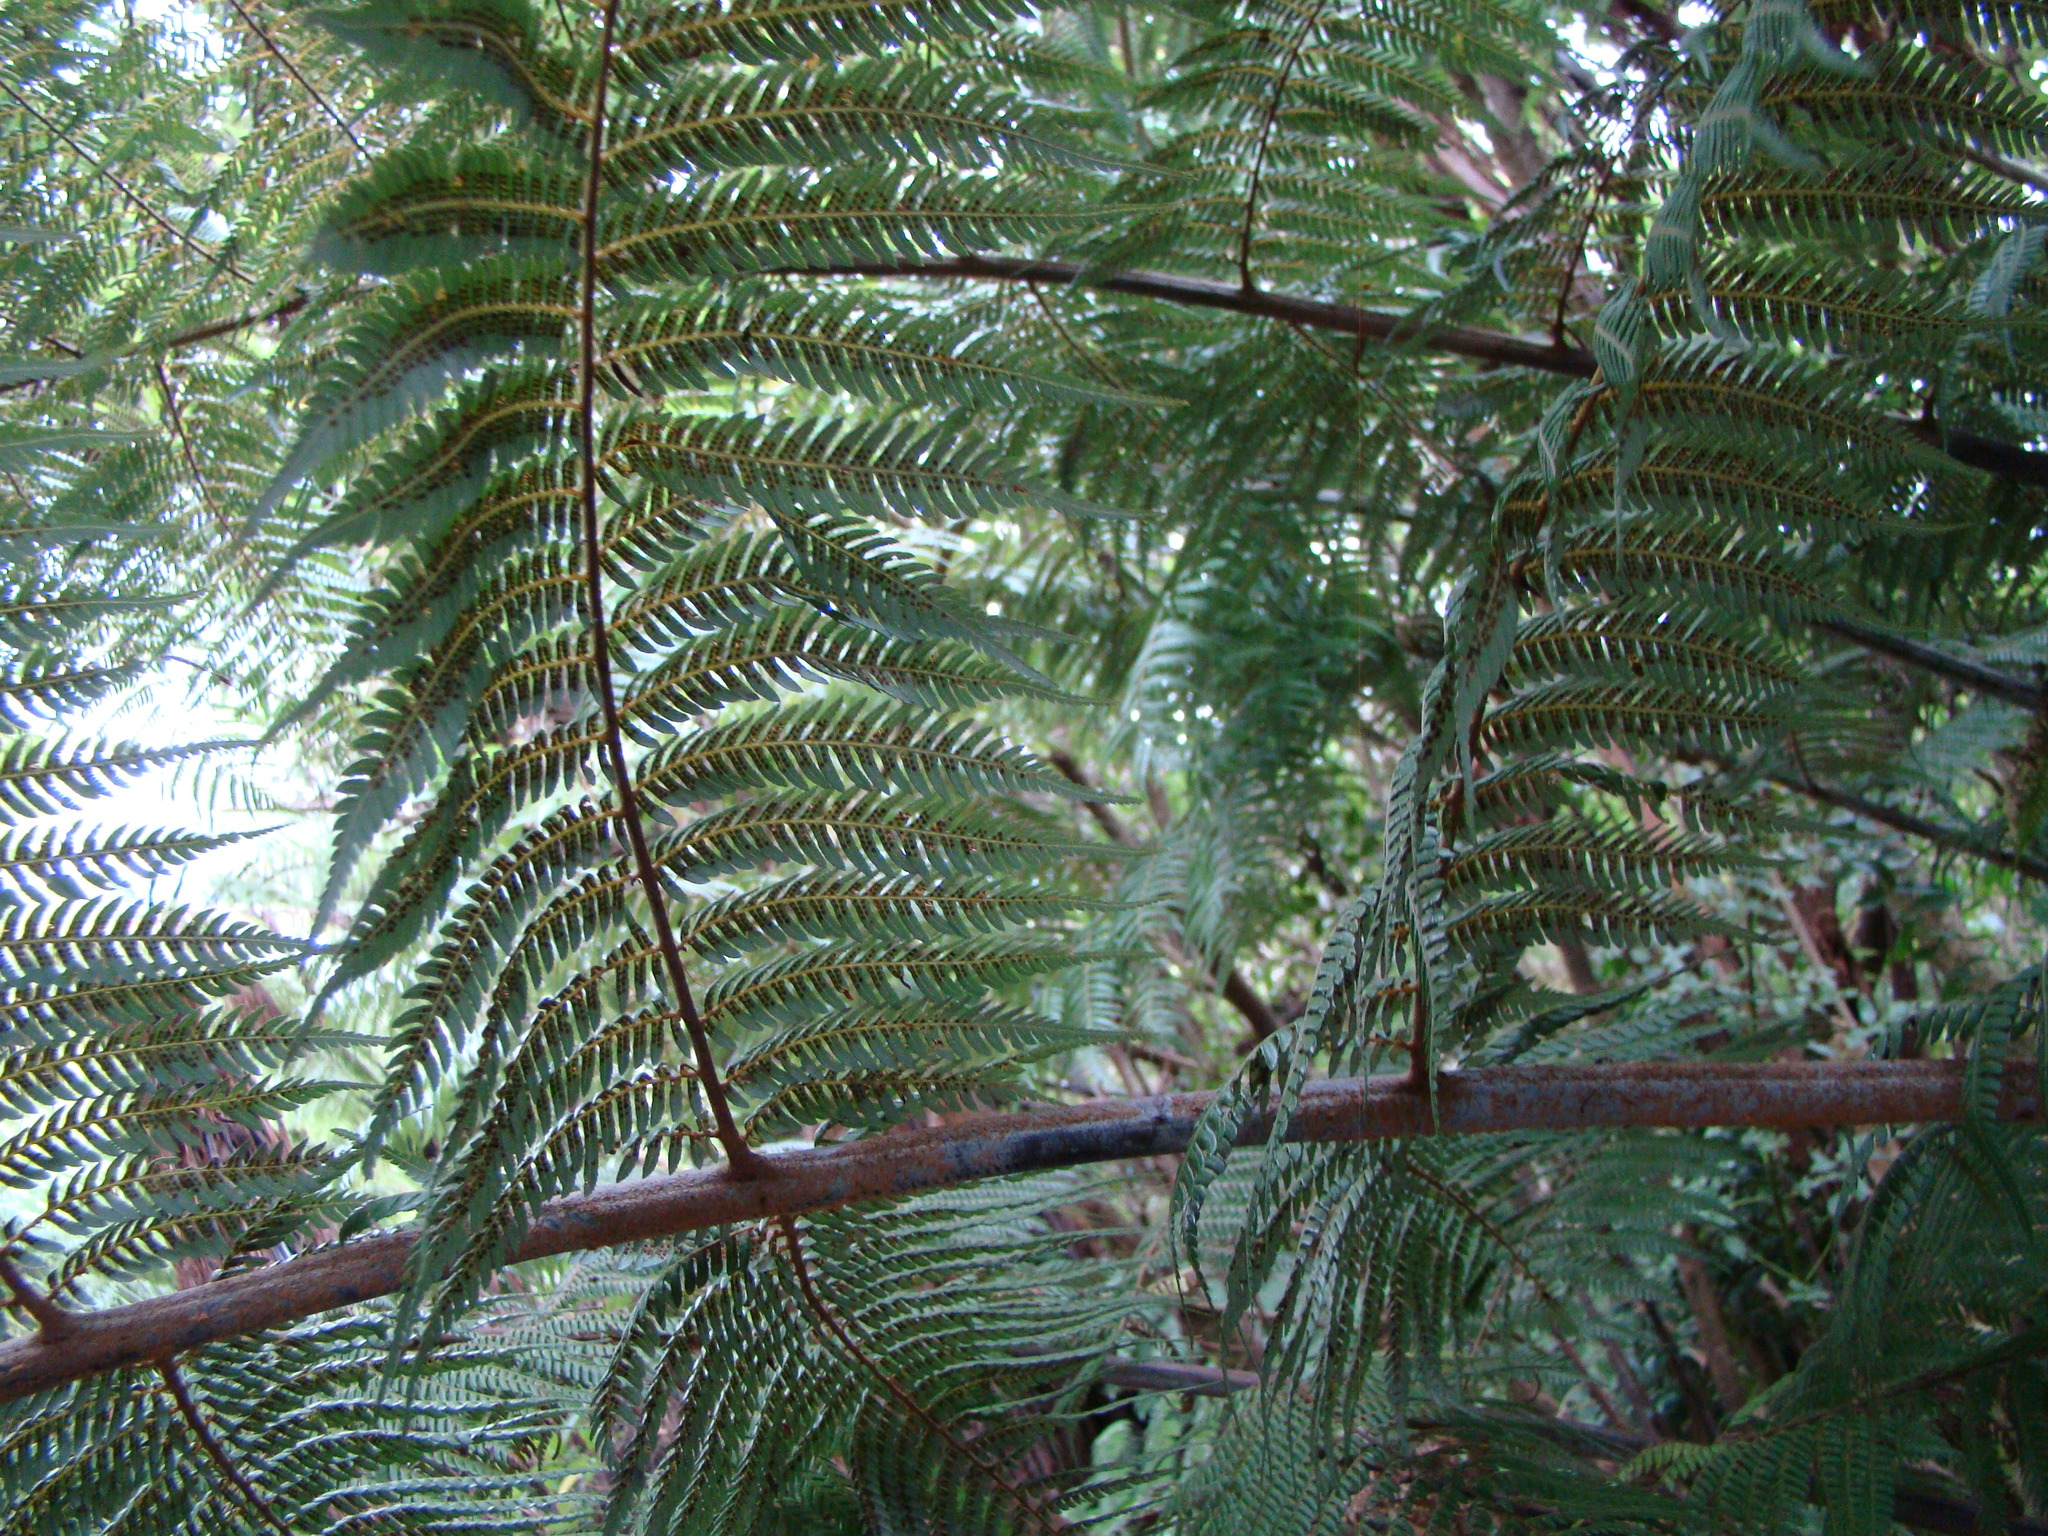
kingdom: Plantae
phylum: Tracheophyta
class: Polypodiopsida
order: Cyatheales
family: Cyatheaceae
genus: Alsophila
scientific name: Alsophila dealbata
